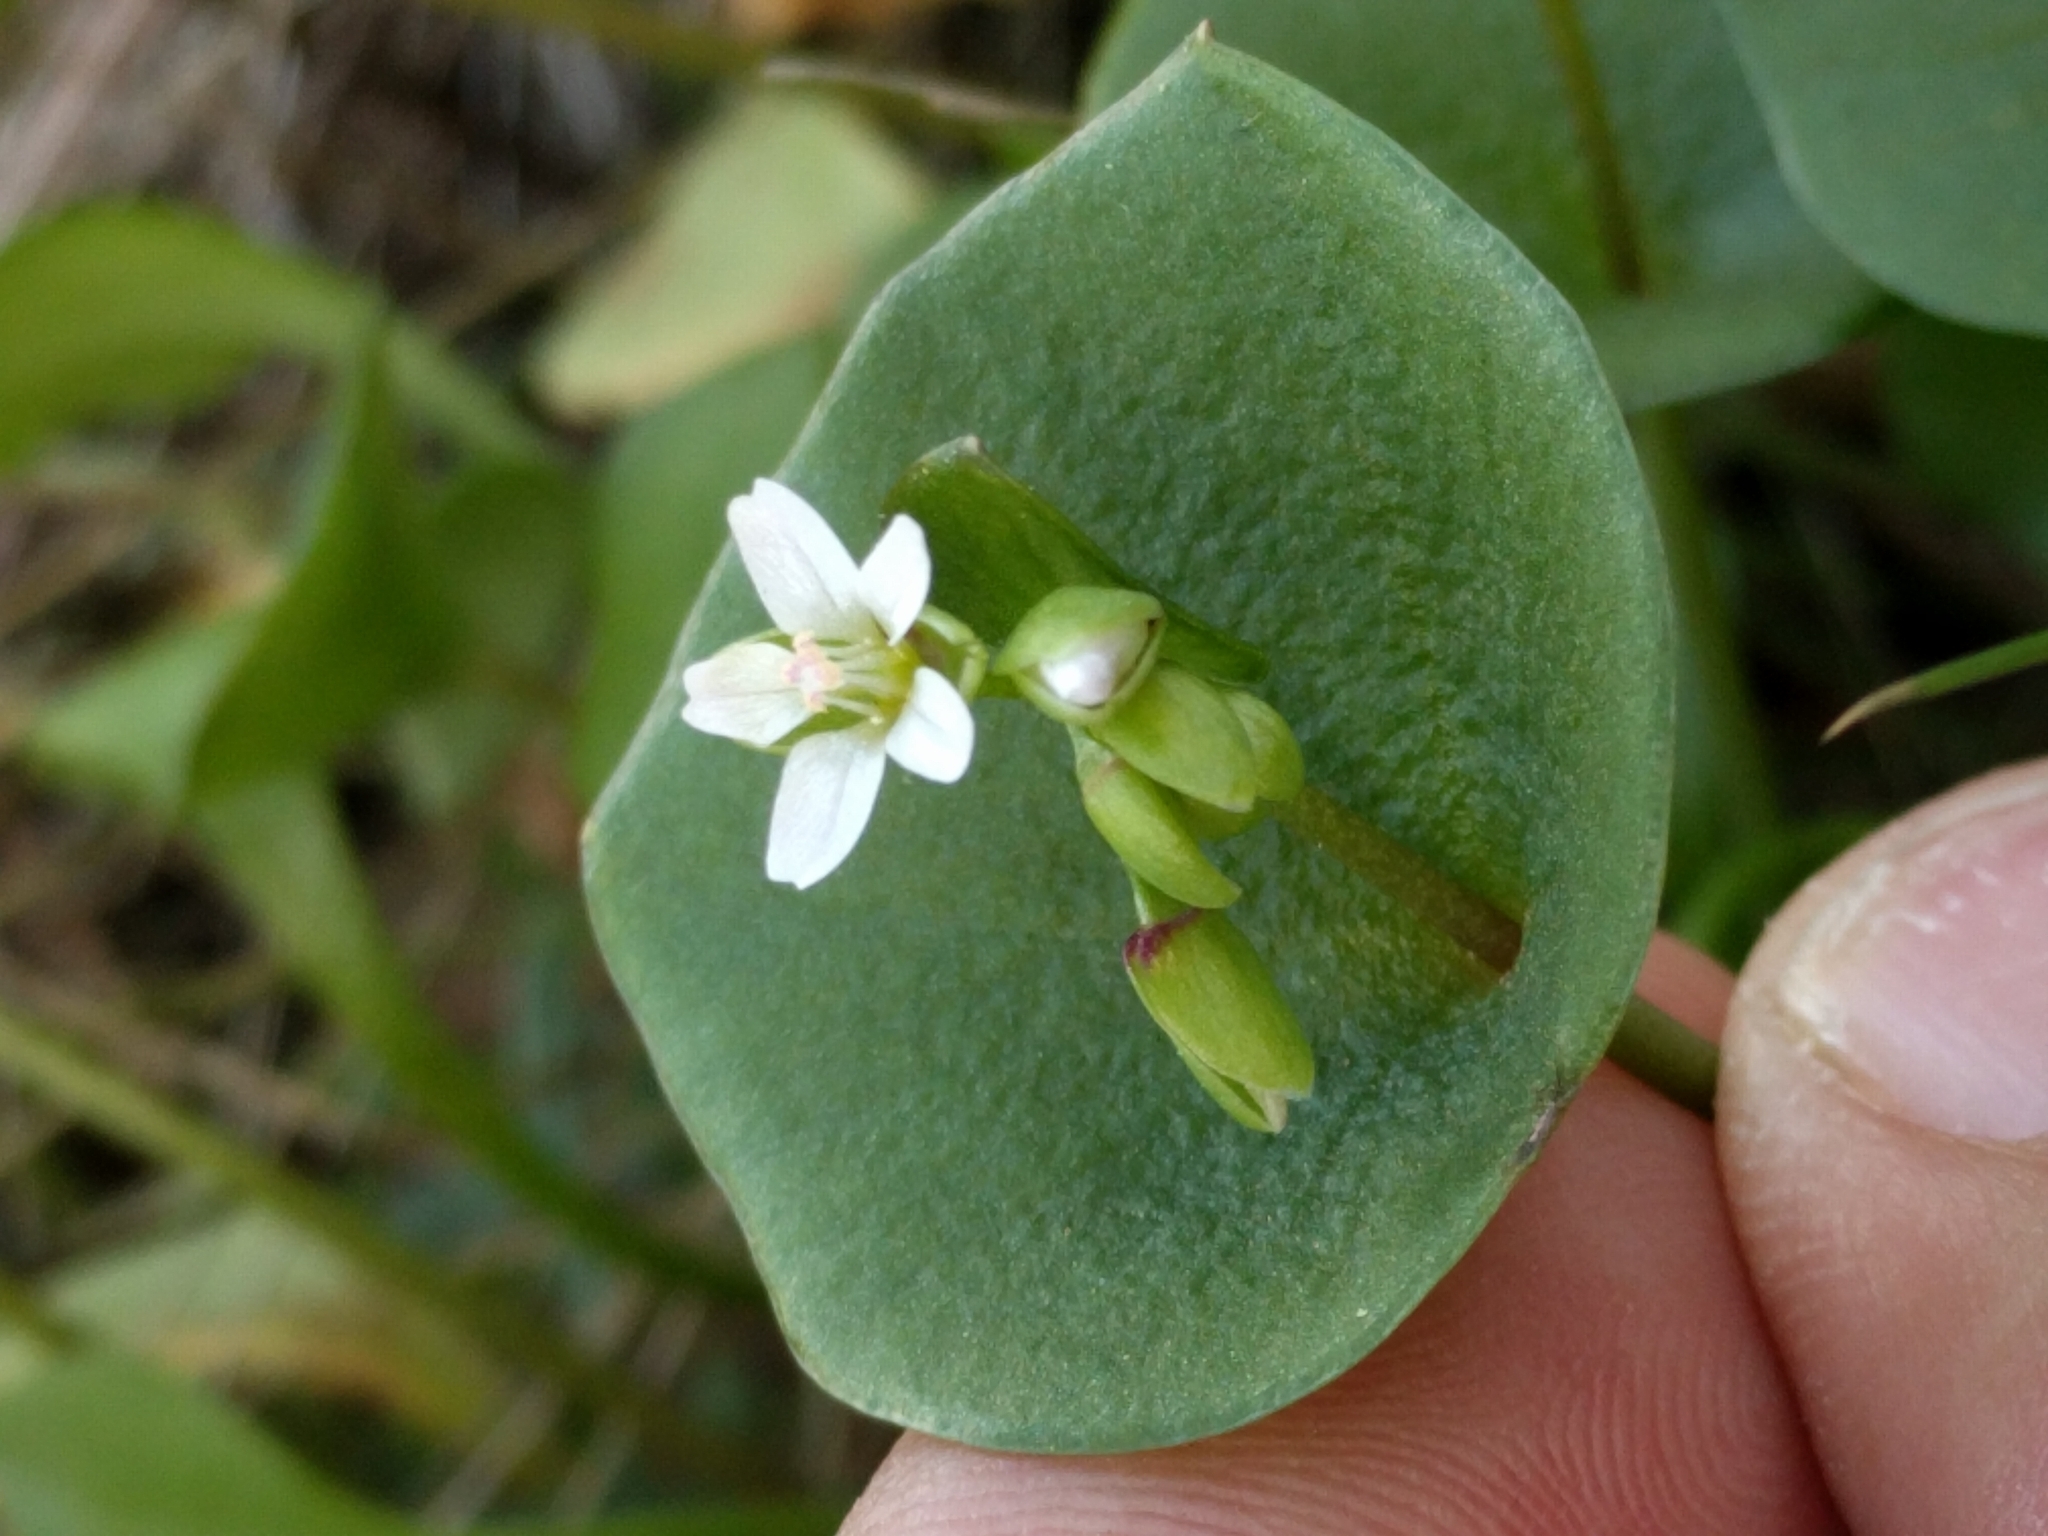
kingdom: Plantae
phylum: Tracheophyta
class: Magnoliopsida
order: Caryophyllales
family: Montiaceae
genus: Claytonia
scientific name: Claytonia perfoliata
